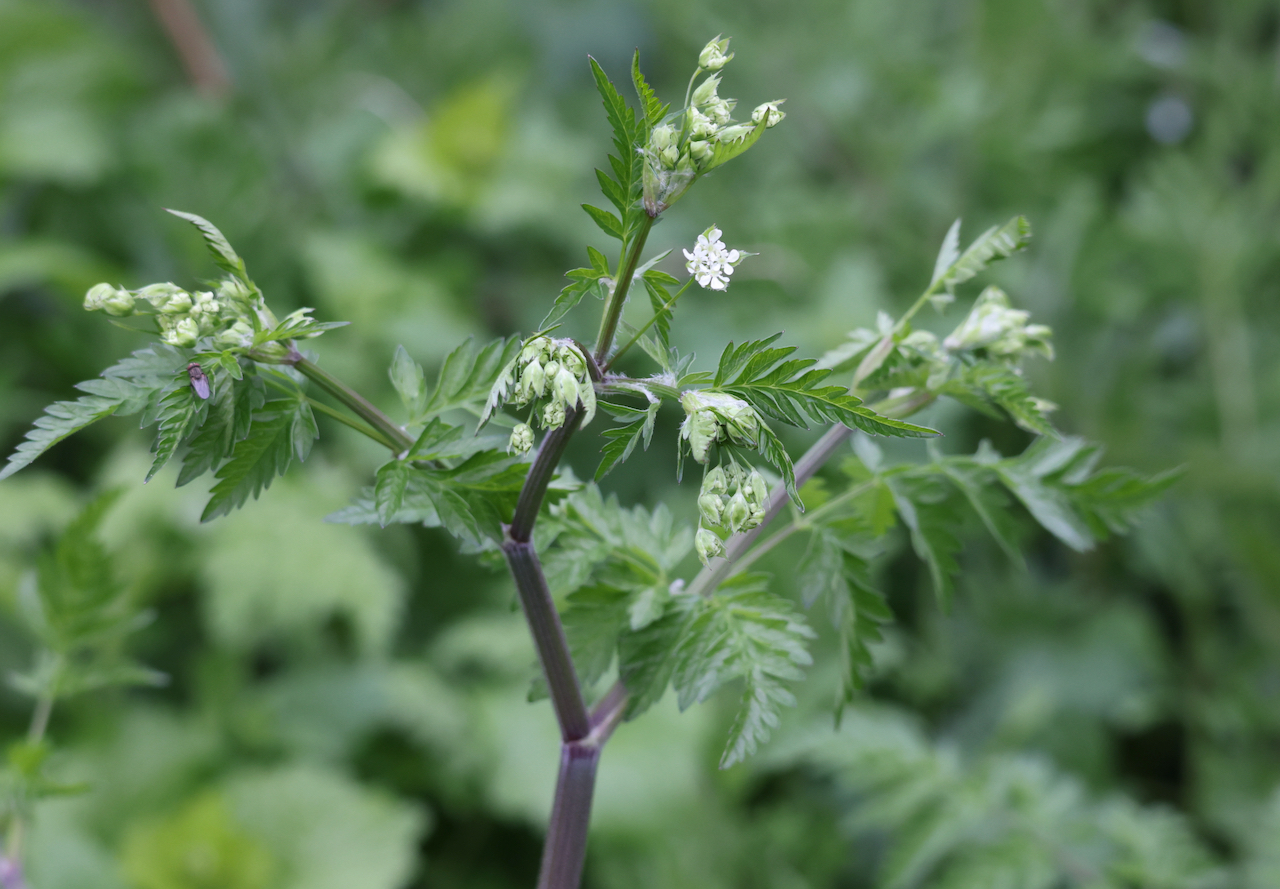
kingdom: Plantae
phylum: Tracheophyta
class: Magnoliopsida
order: Apiales
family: Apiaceae
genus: Anthriscus
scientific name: Anthriscus sylvestris
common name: Cow parsley
